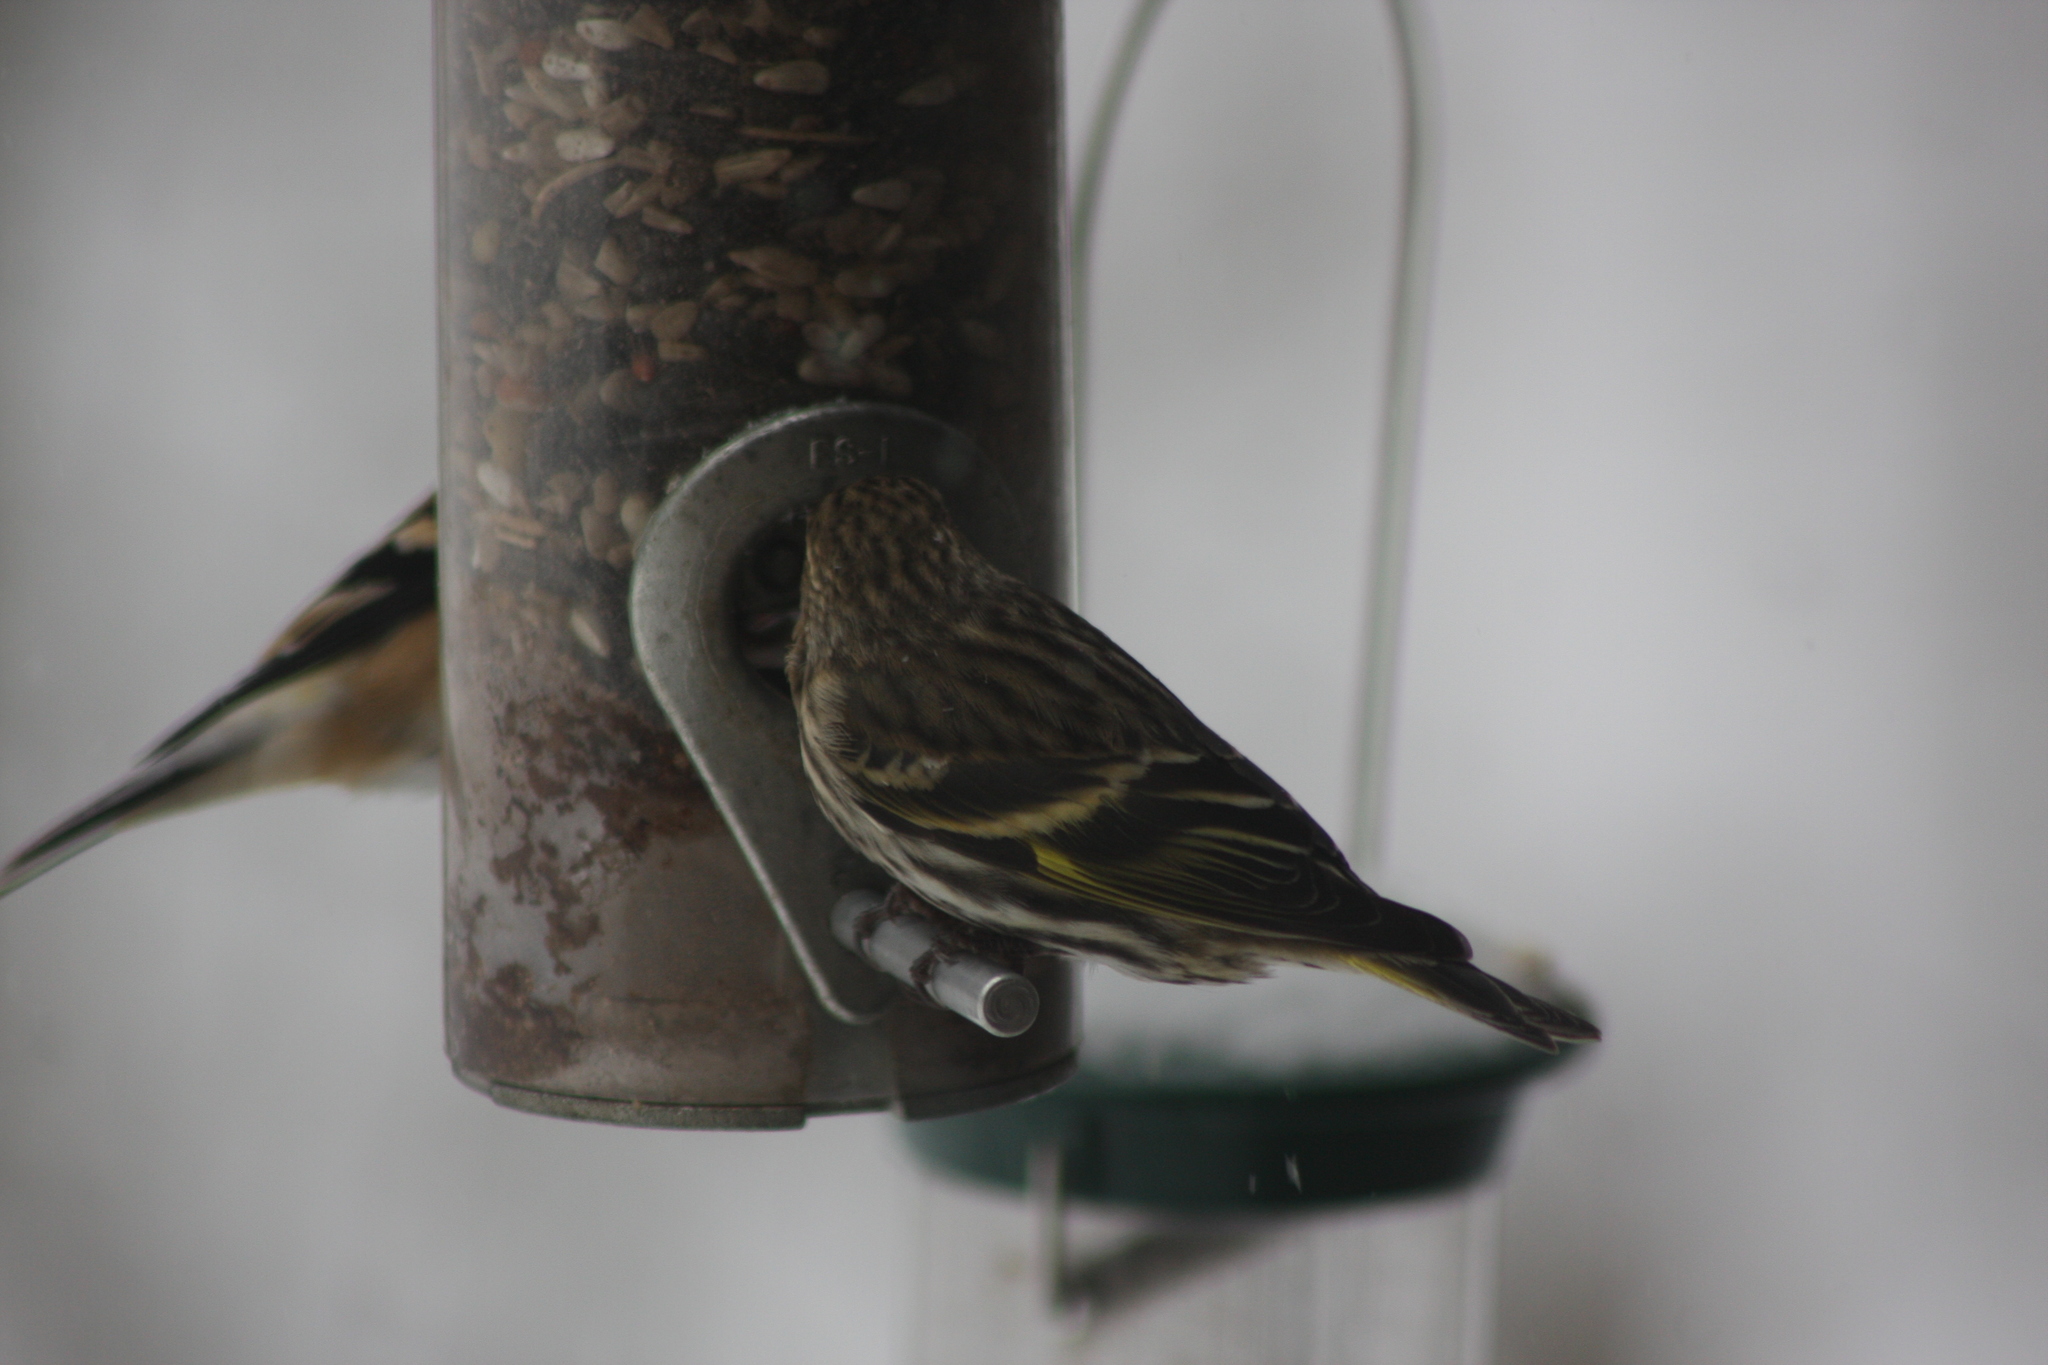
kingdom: Animalia
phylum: Chordata
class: Aves
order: Passeriformes
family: Fringillidae
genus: Spinus
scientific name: Spinus pinus
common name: Pine siskin
